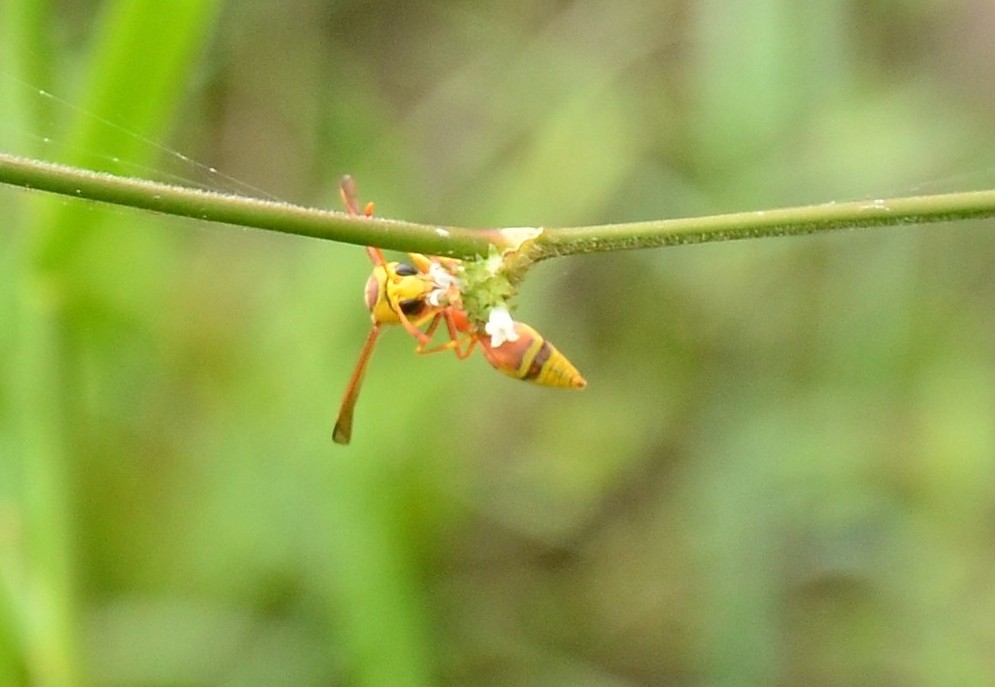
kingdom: Animalia
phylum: Arthropoda
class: Insecta
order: Hymenoptera
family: Eumenidae
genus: Delta
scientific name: Delta esuriens
